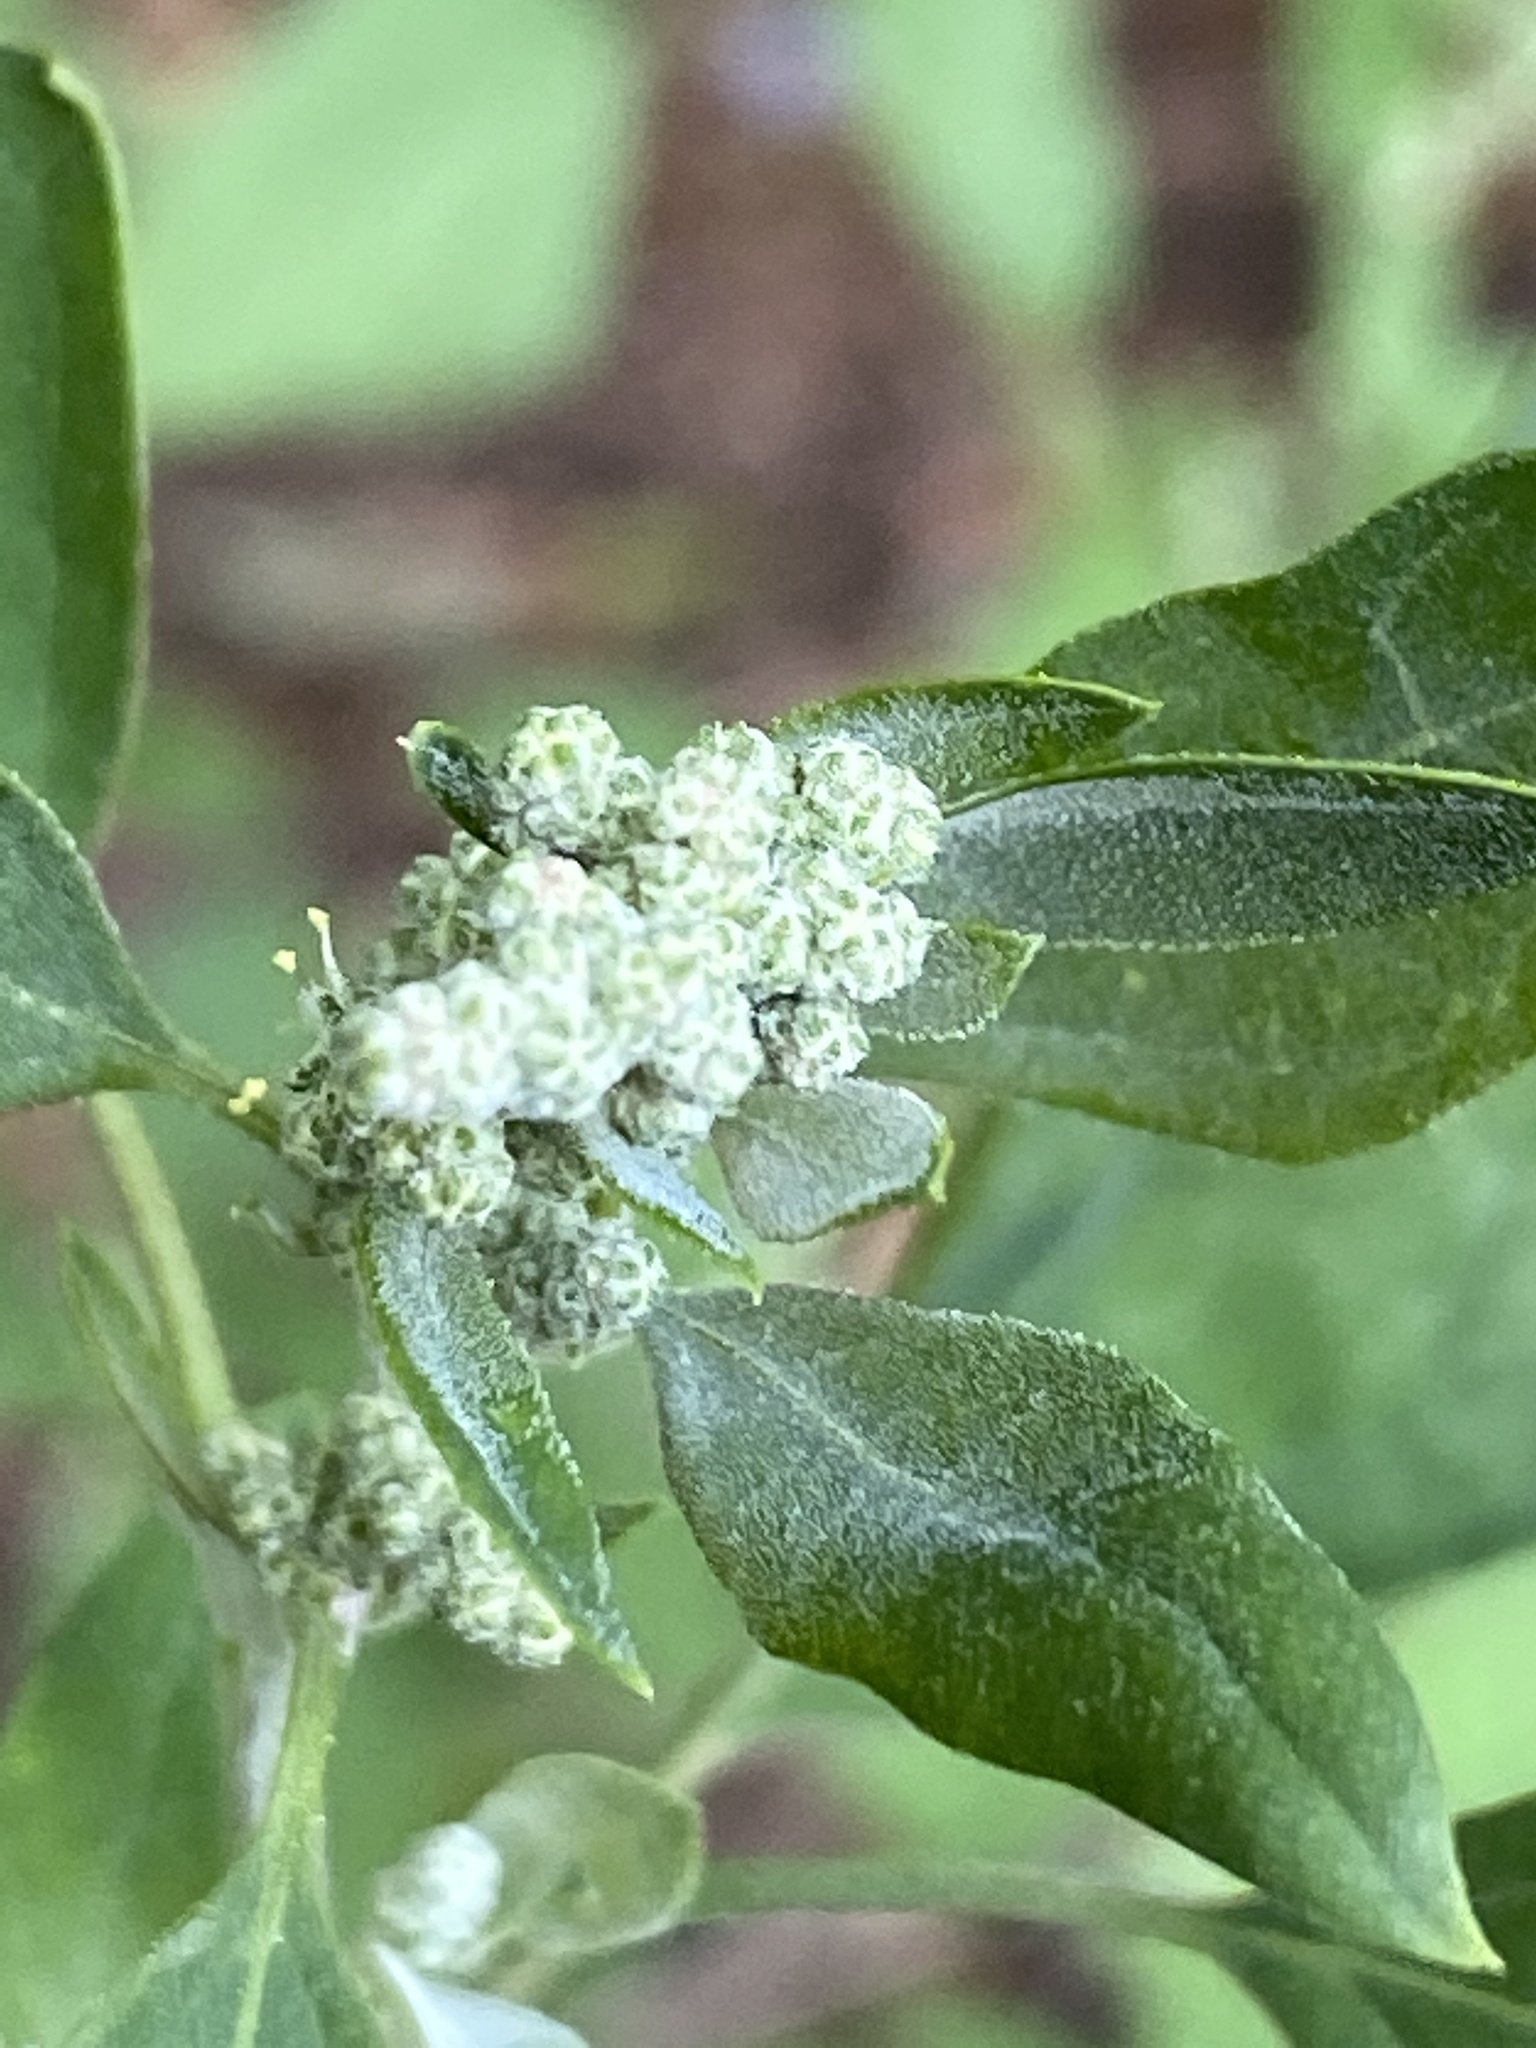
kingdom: Plantae
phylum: Tracheophyta
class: Magnoliopsida
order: Caryophyllales
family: Amaranthaceae
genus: Chenopodium
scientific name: Chenopodium album
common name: Fat-hen
